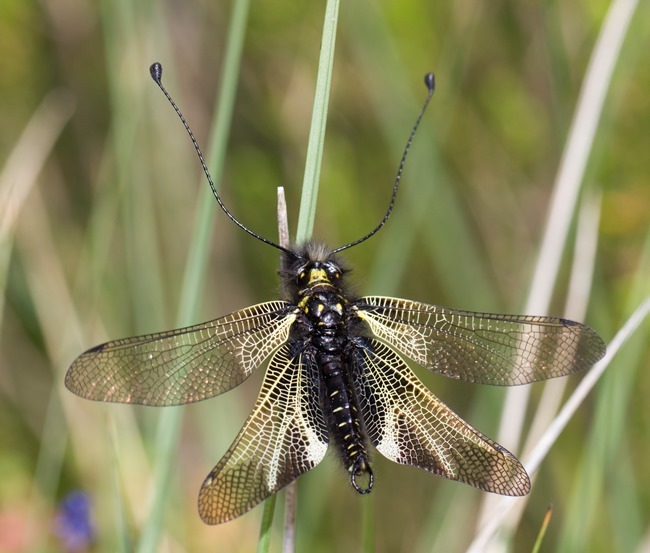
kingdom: Animalia
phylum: Arthropoda
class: Insecta
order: Neuroptera
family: Ascalaphidae
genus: Libelloides
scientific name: Libelloides hispanicus
